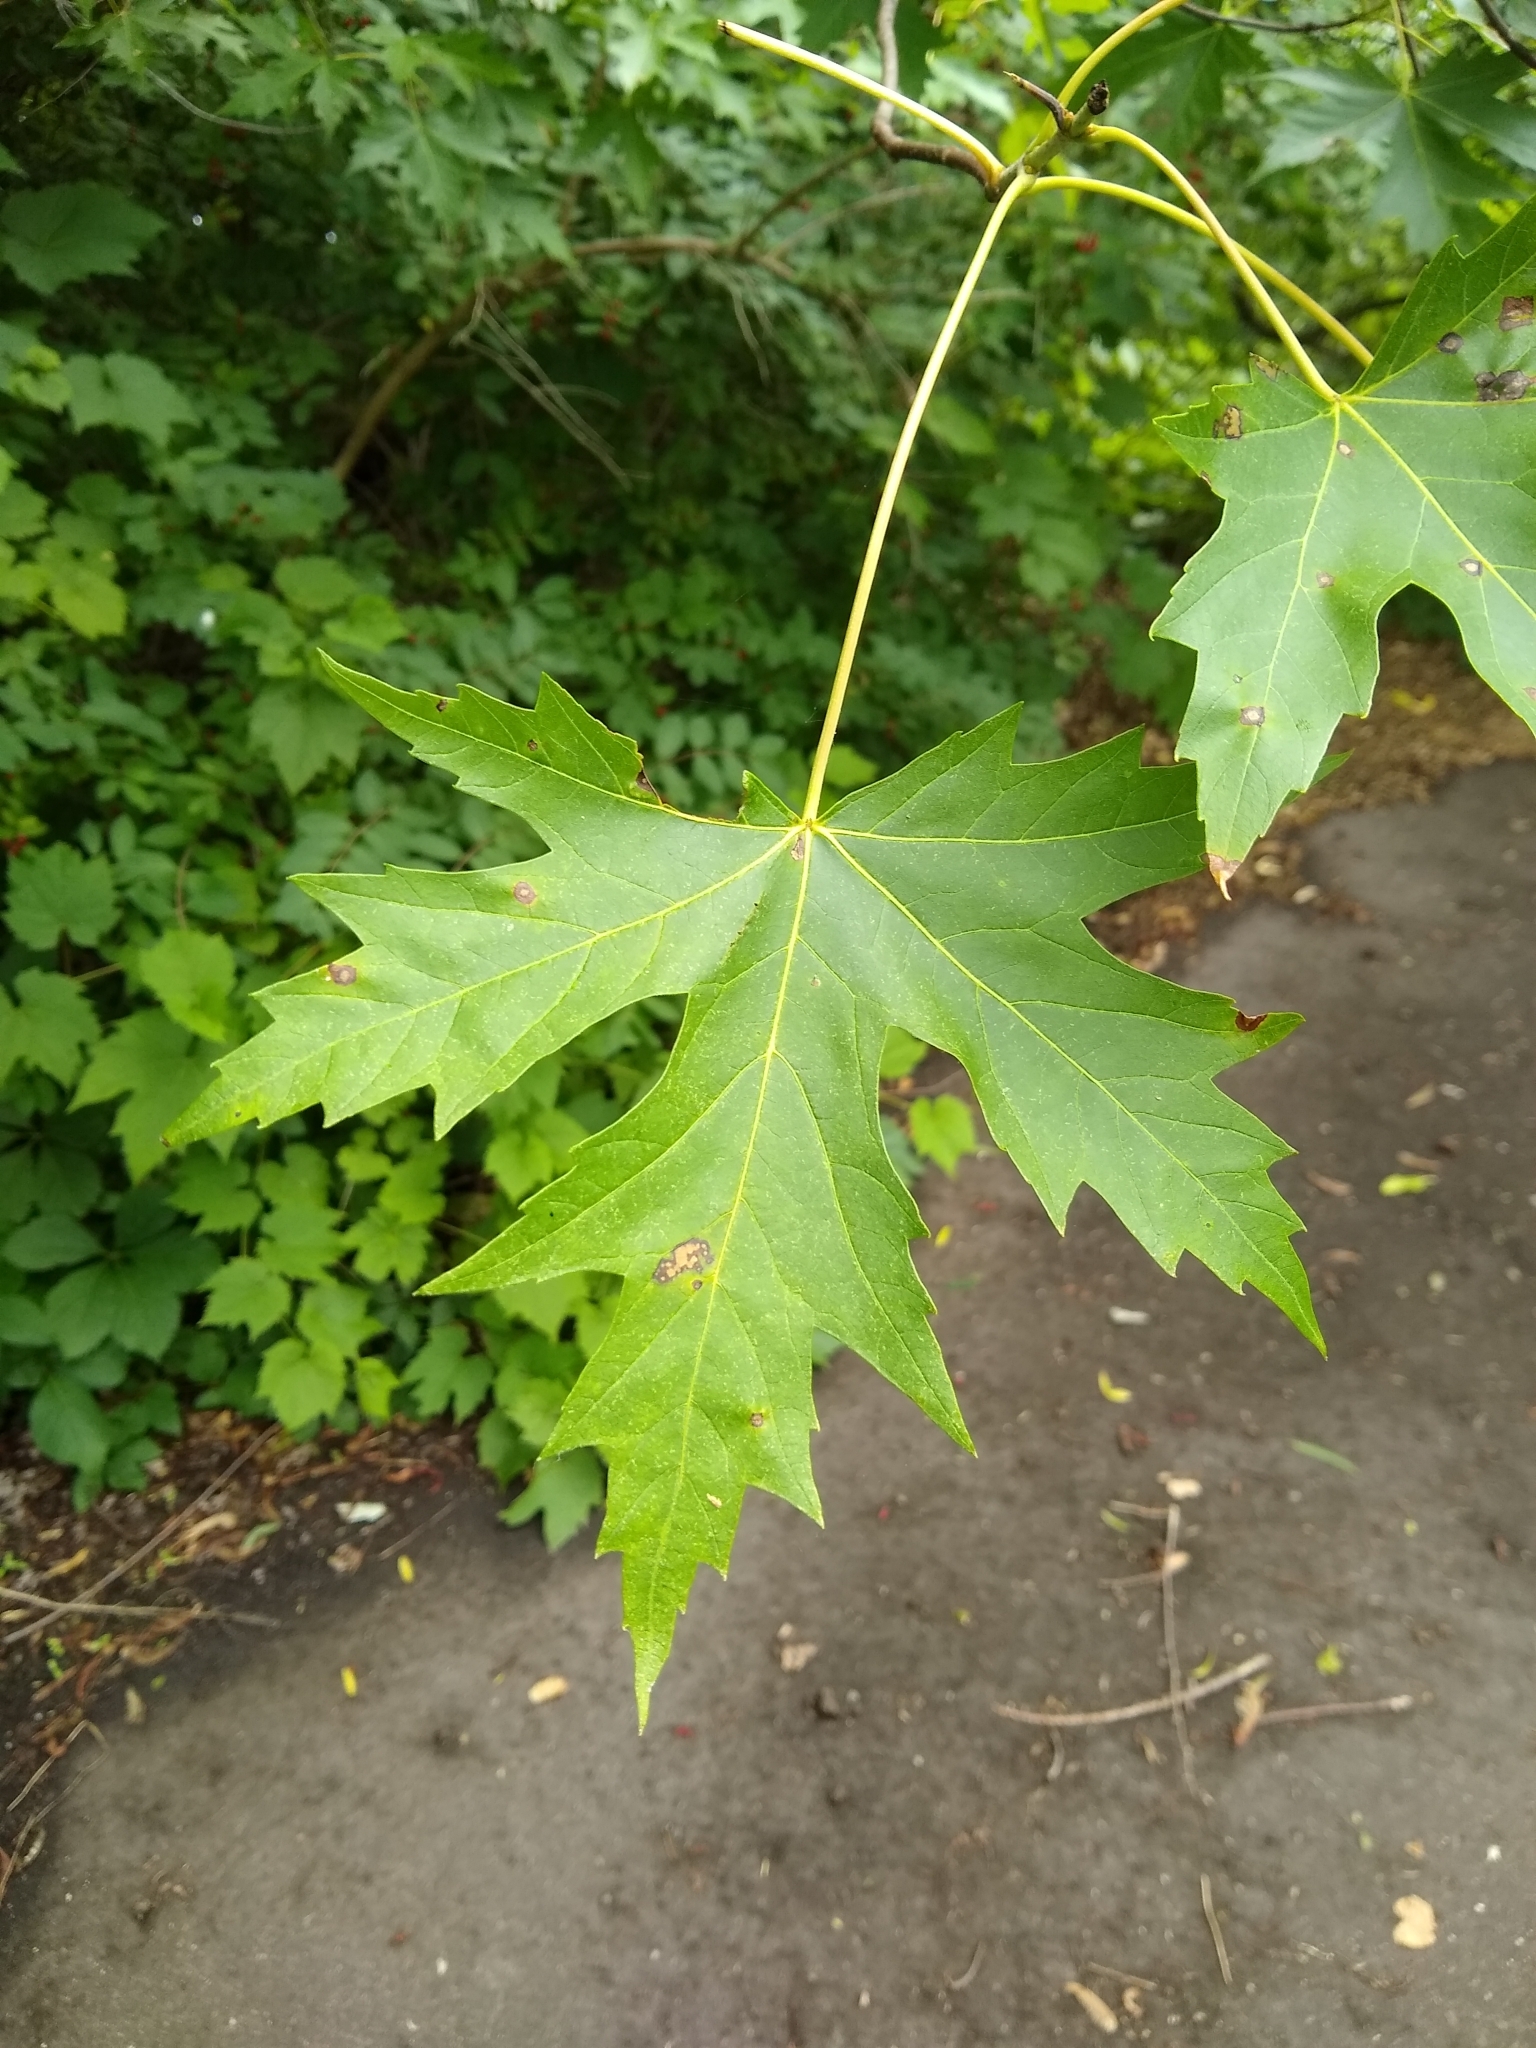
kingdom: Plantae
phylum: Tracheophyta
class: Magnoliopsida
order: Sapindales
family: Sapindaceae
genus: Acer
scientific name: Acer saccharinum
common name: Silver maple
